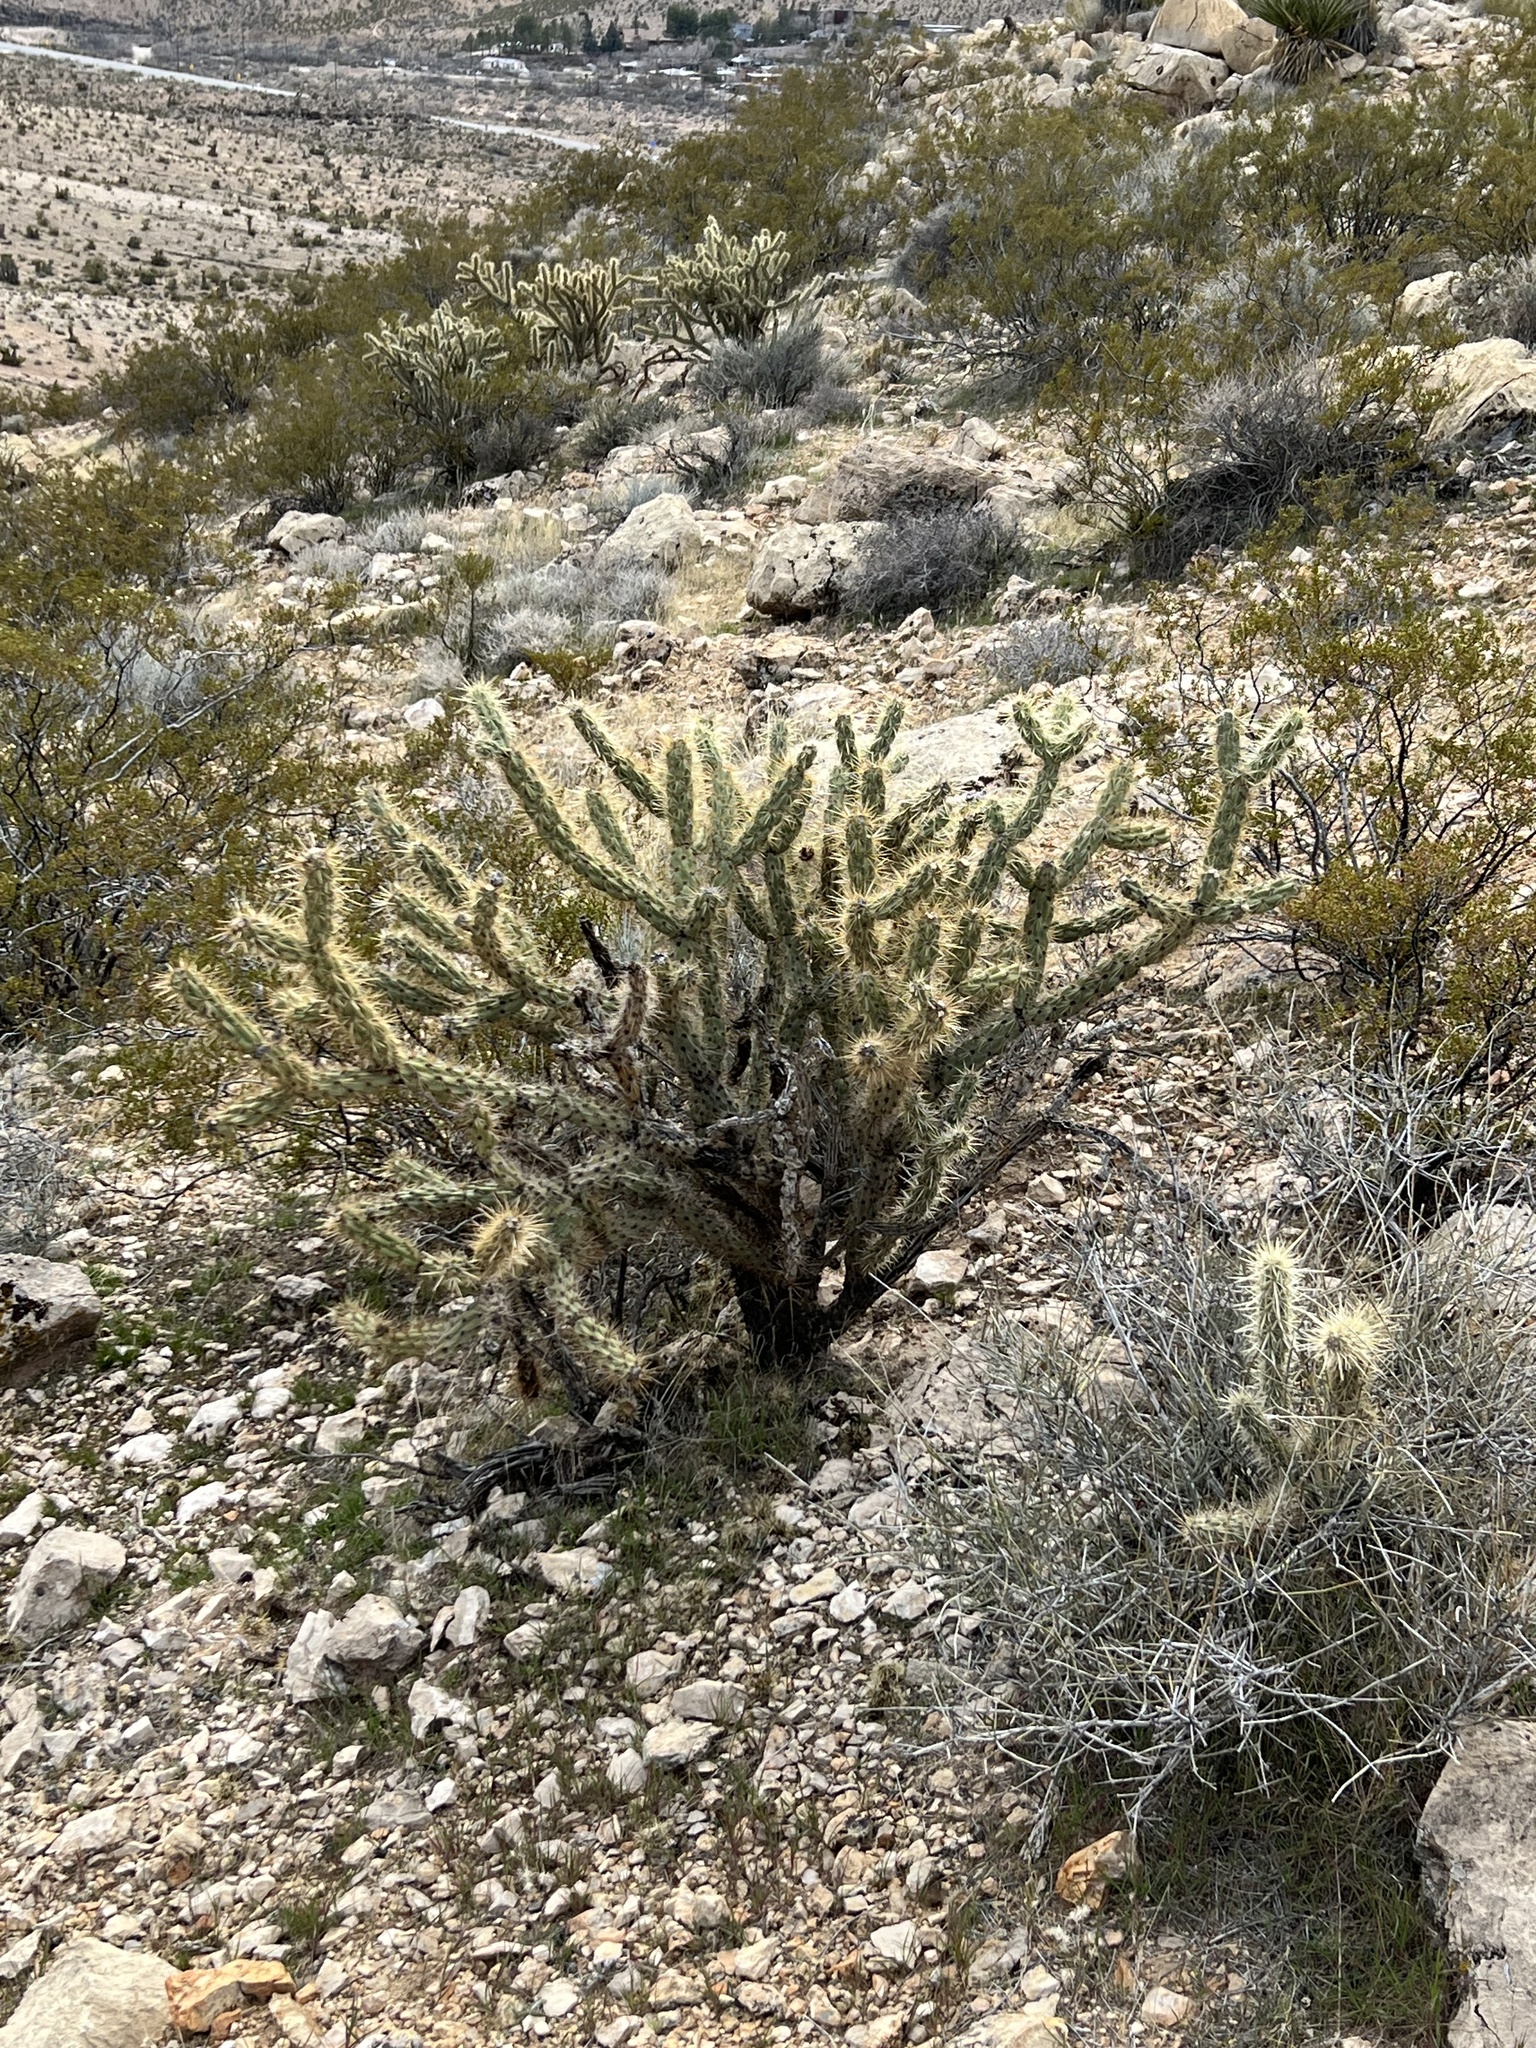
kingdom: Plantae
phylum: Tracheophyta
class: Magnoliopsida
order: Caryophyllales
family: Cactaceae
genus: Cylindropuntia
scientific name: Cylindropuntia acanthocarpa
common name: Buckhorn cholla
